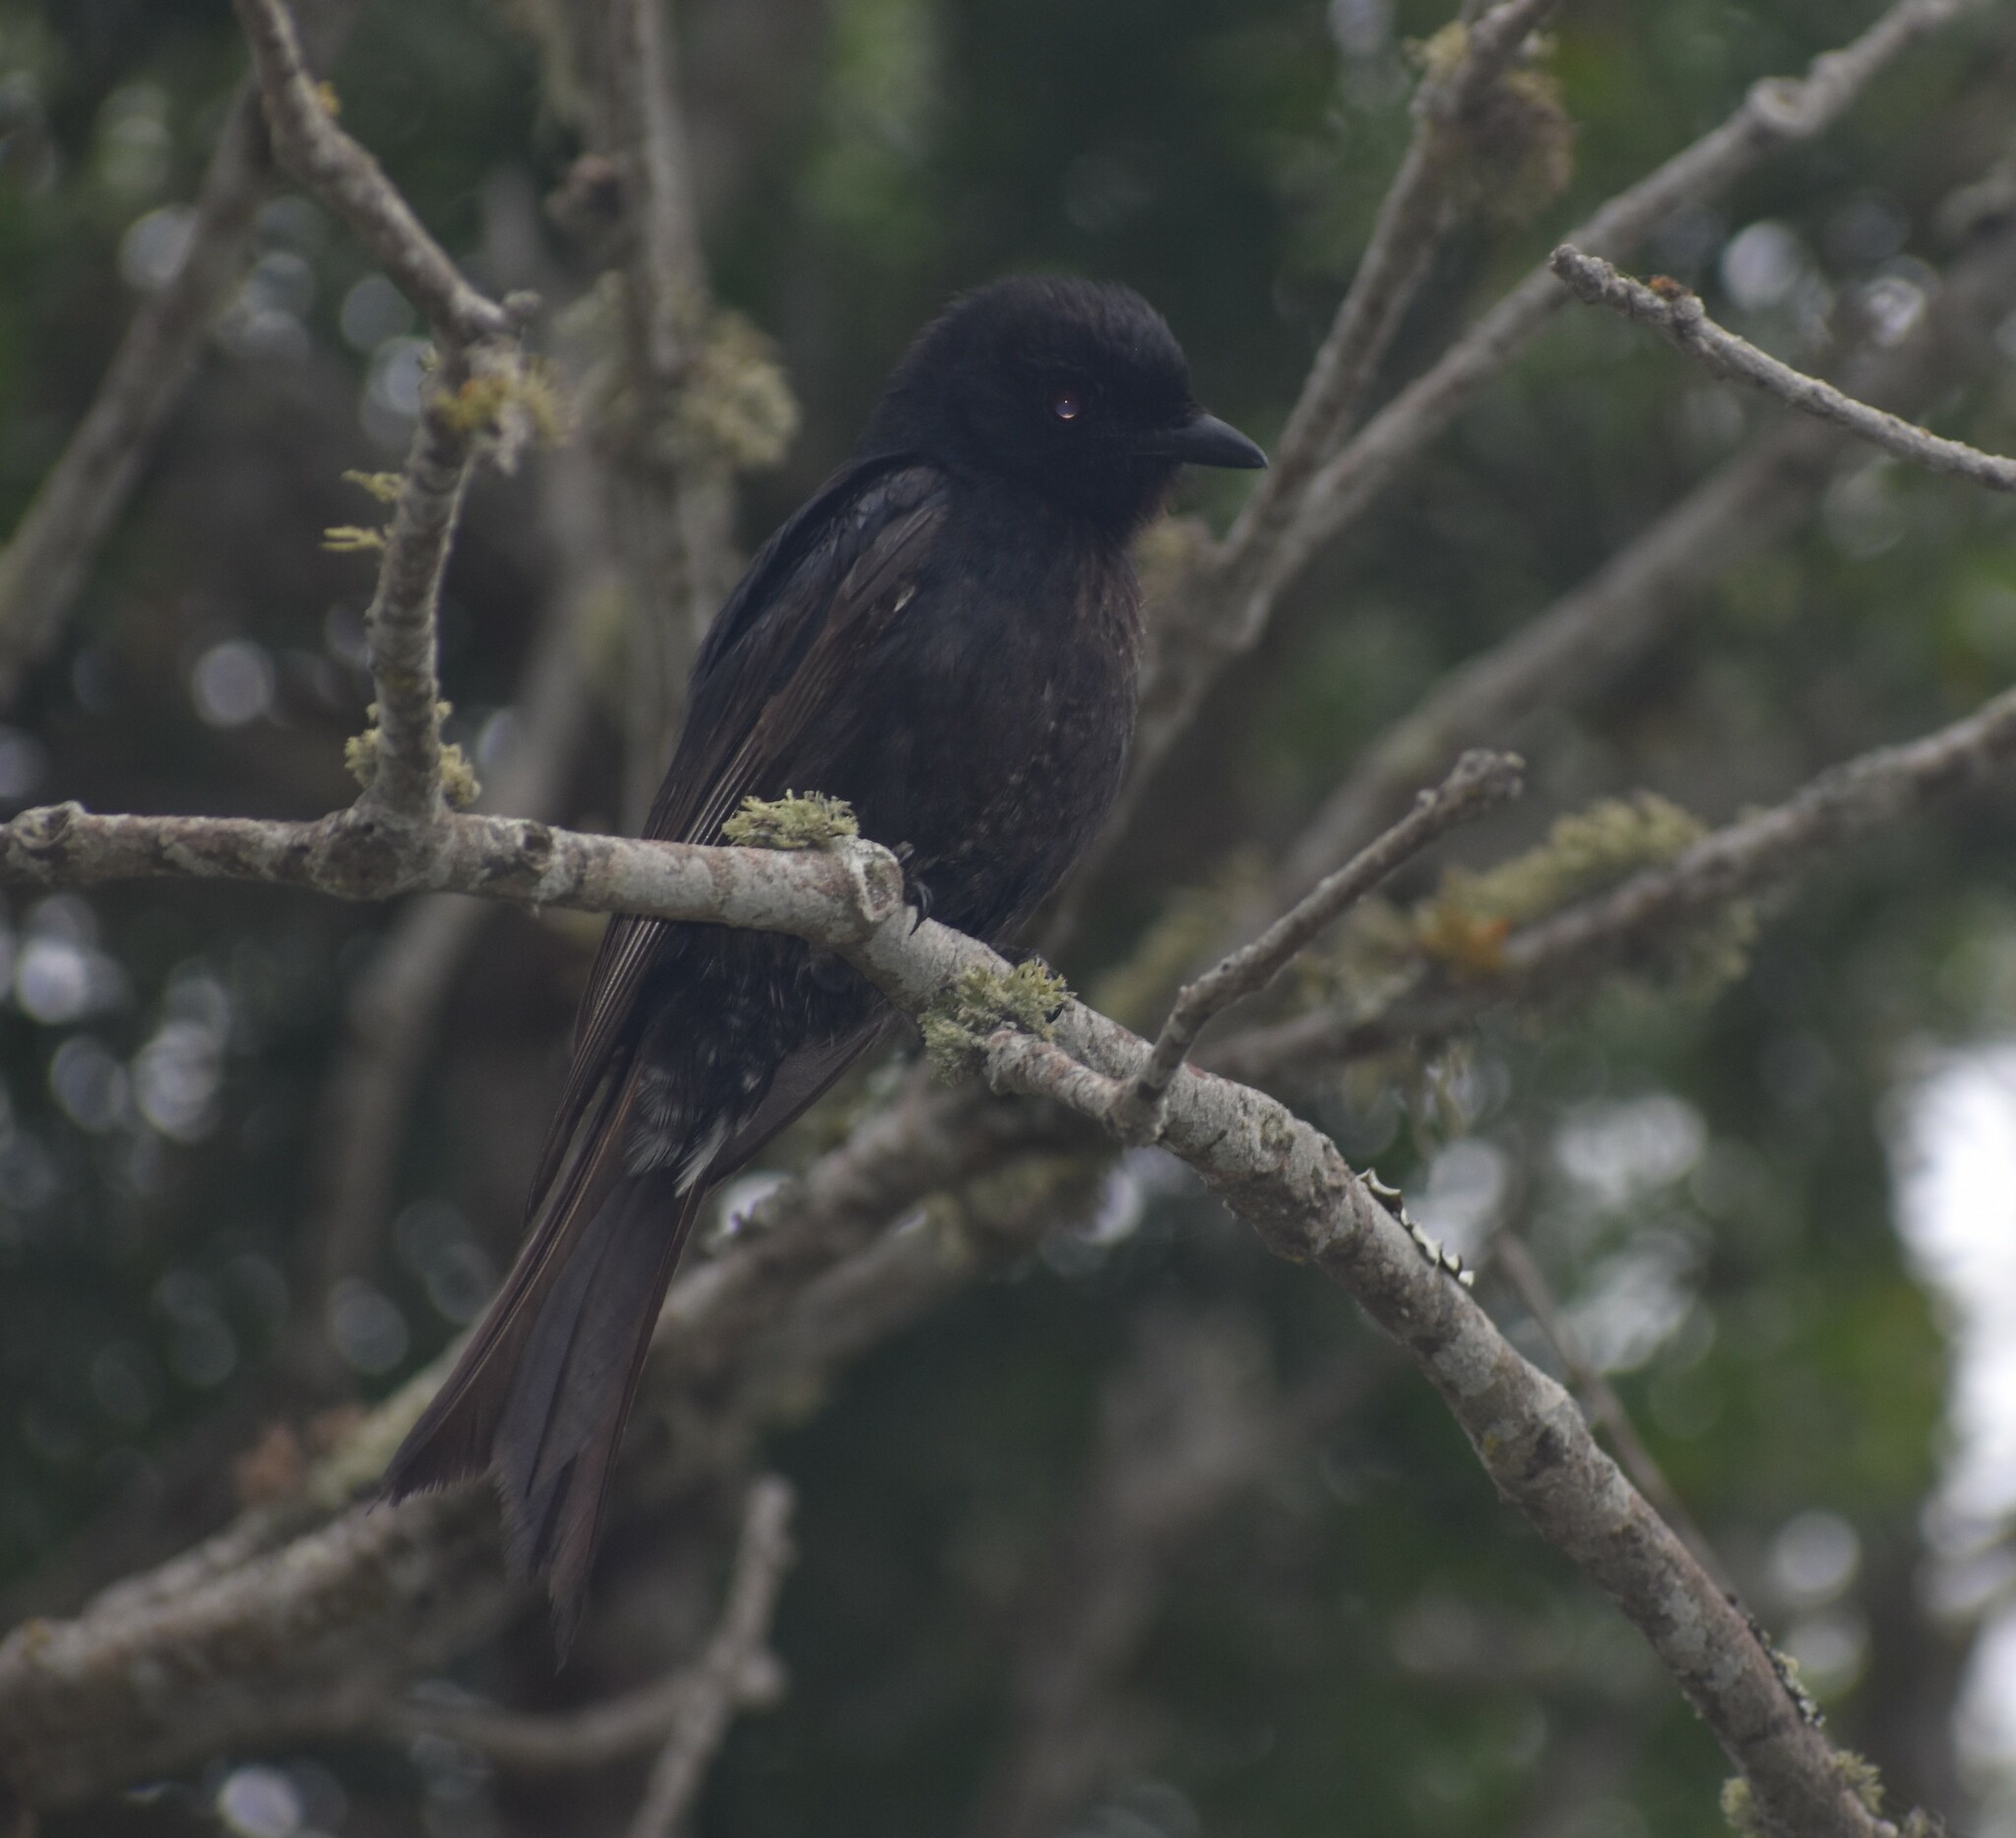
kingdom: Animalia
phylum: Chordata
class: Aves
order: Passeriformes
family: Dicruridae
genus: Dicrurus
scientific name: Dicrurus adsimilis
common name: Fork-tailed drongo
